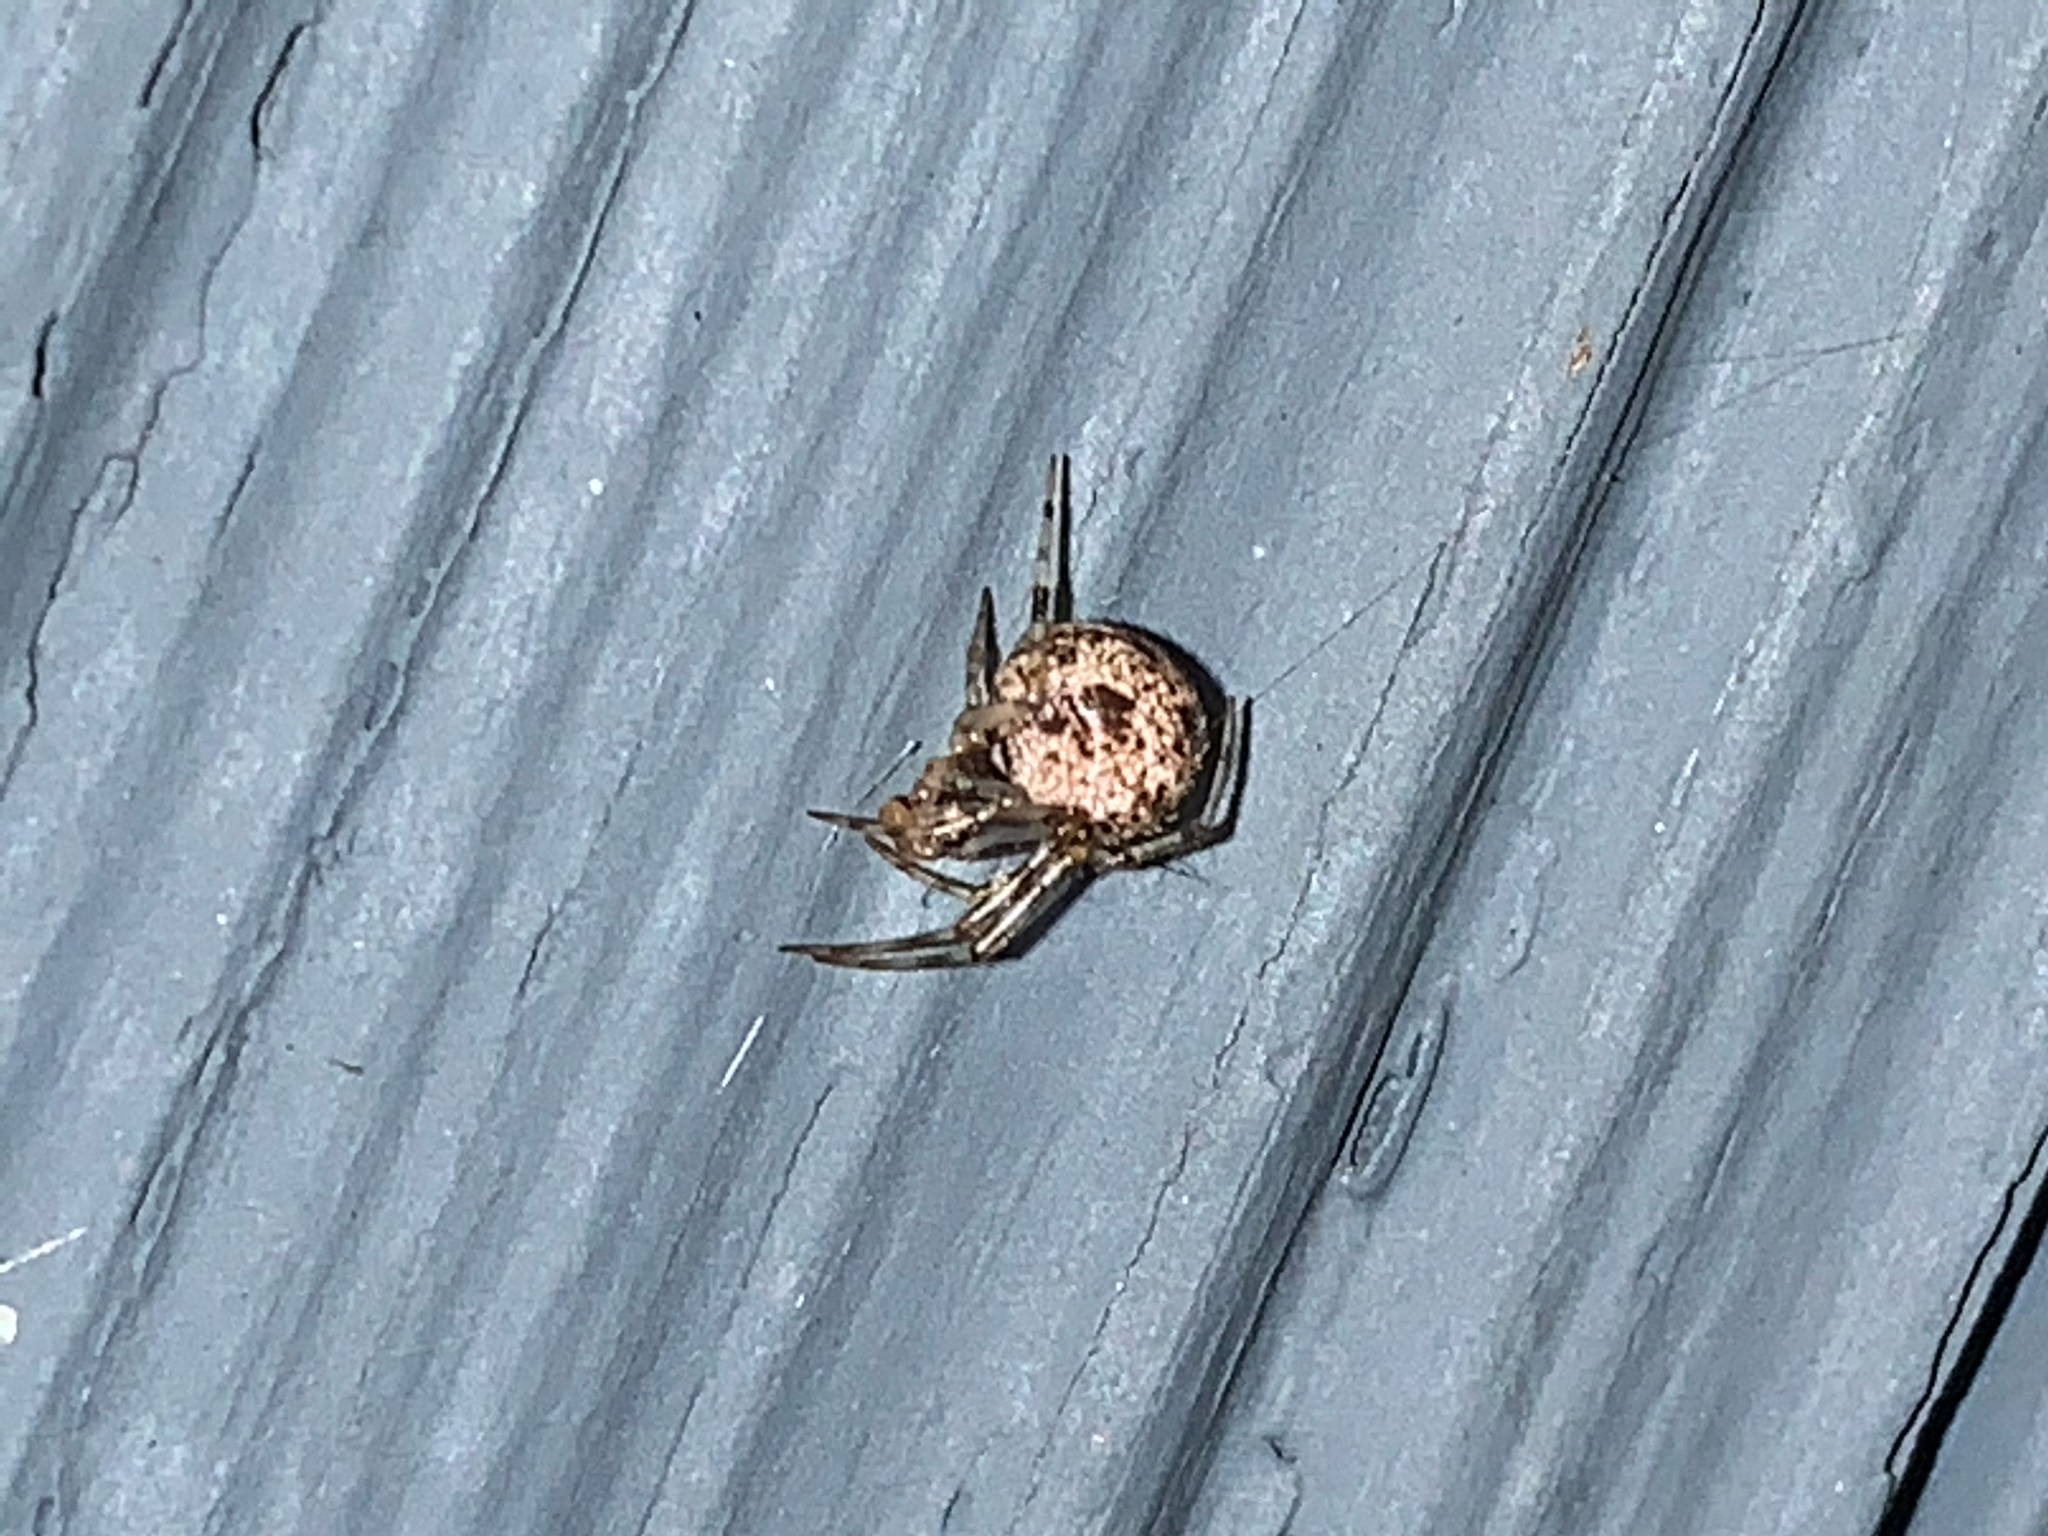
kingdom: Animalia
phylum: Arthropoda
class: Arachnida
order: Araneae
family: Theridiidae
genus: Parasteatoda
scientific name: Parasteatoda tepidariorum
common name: Common house spider
